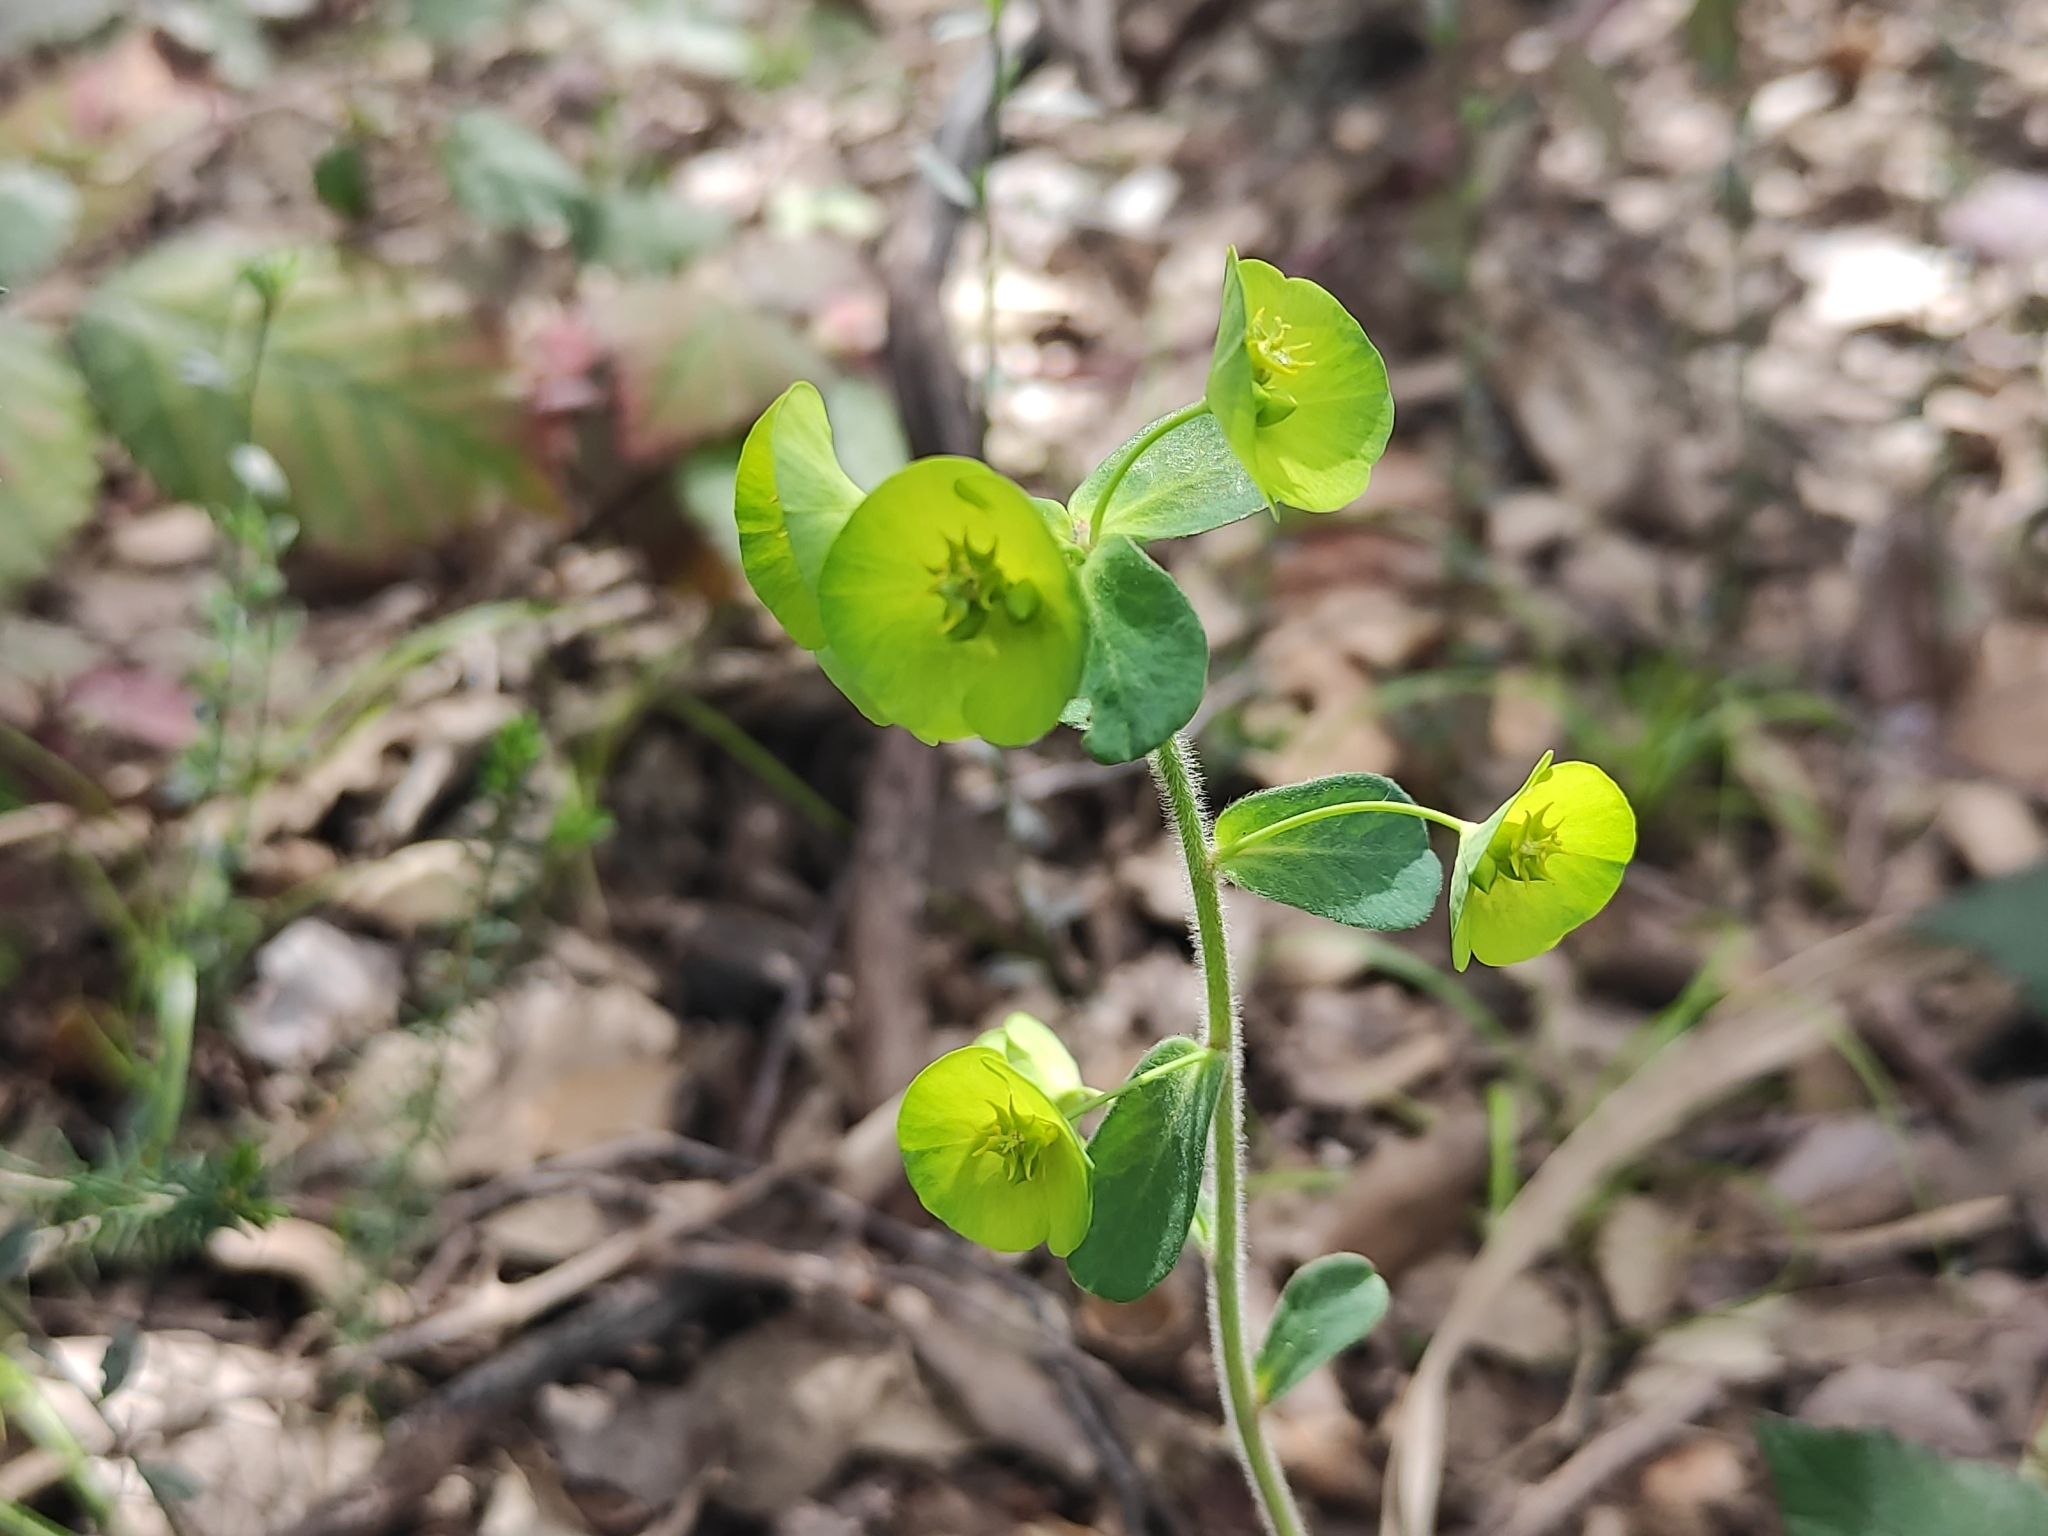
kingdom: Plantae
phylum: Tracheophyta
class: Magnoliopsida
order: Malpighiales
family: Euphorbiaceae
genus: Euphorbia
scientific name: Euphorbia amygdaloides
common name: Wood spurge
